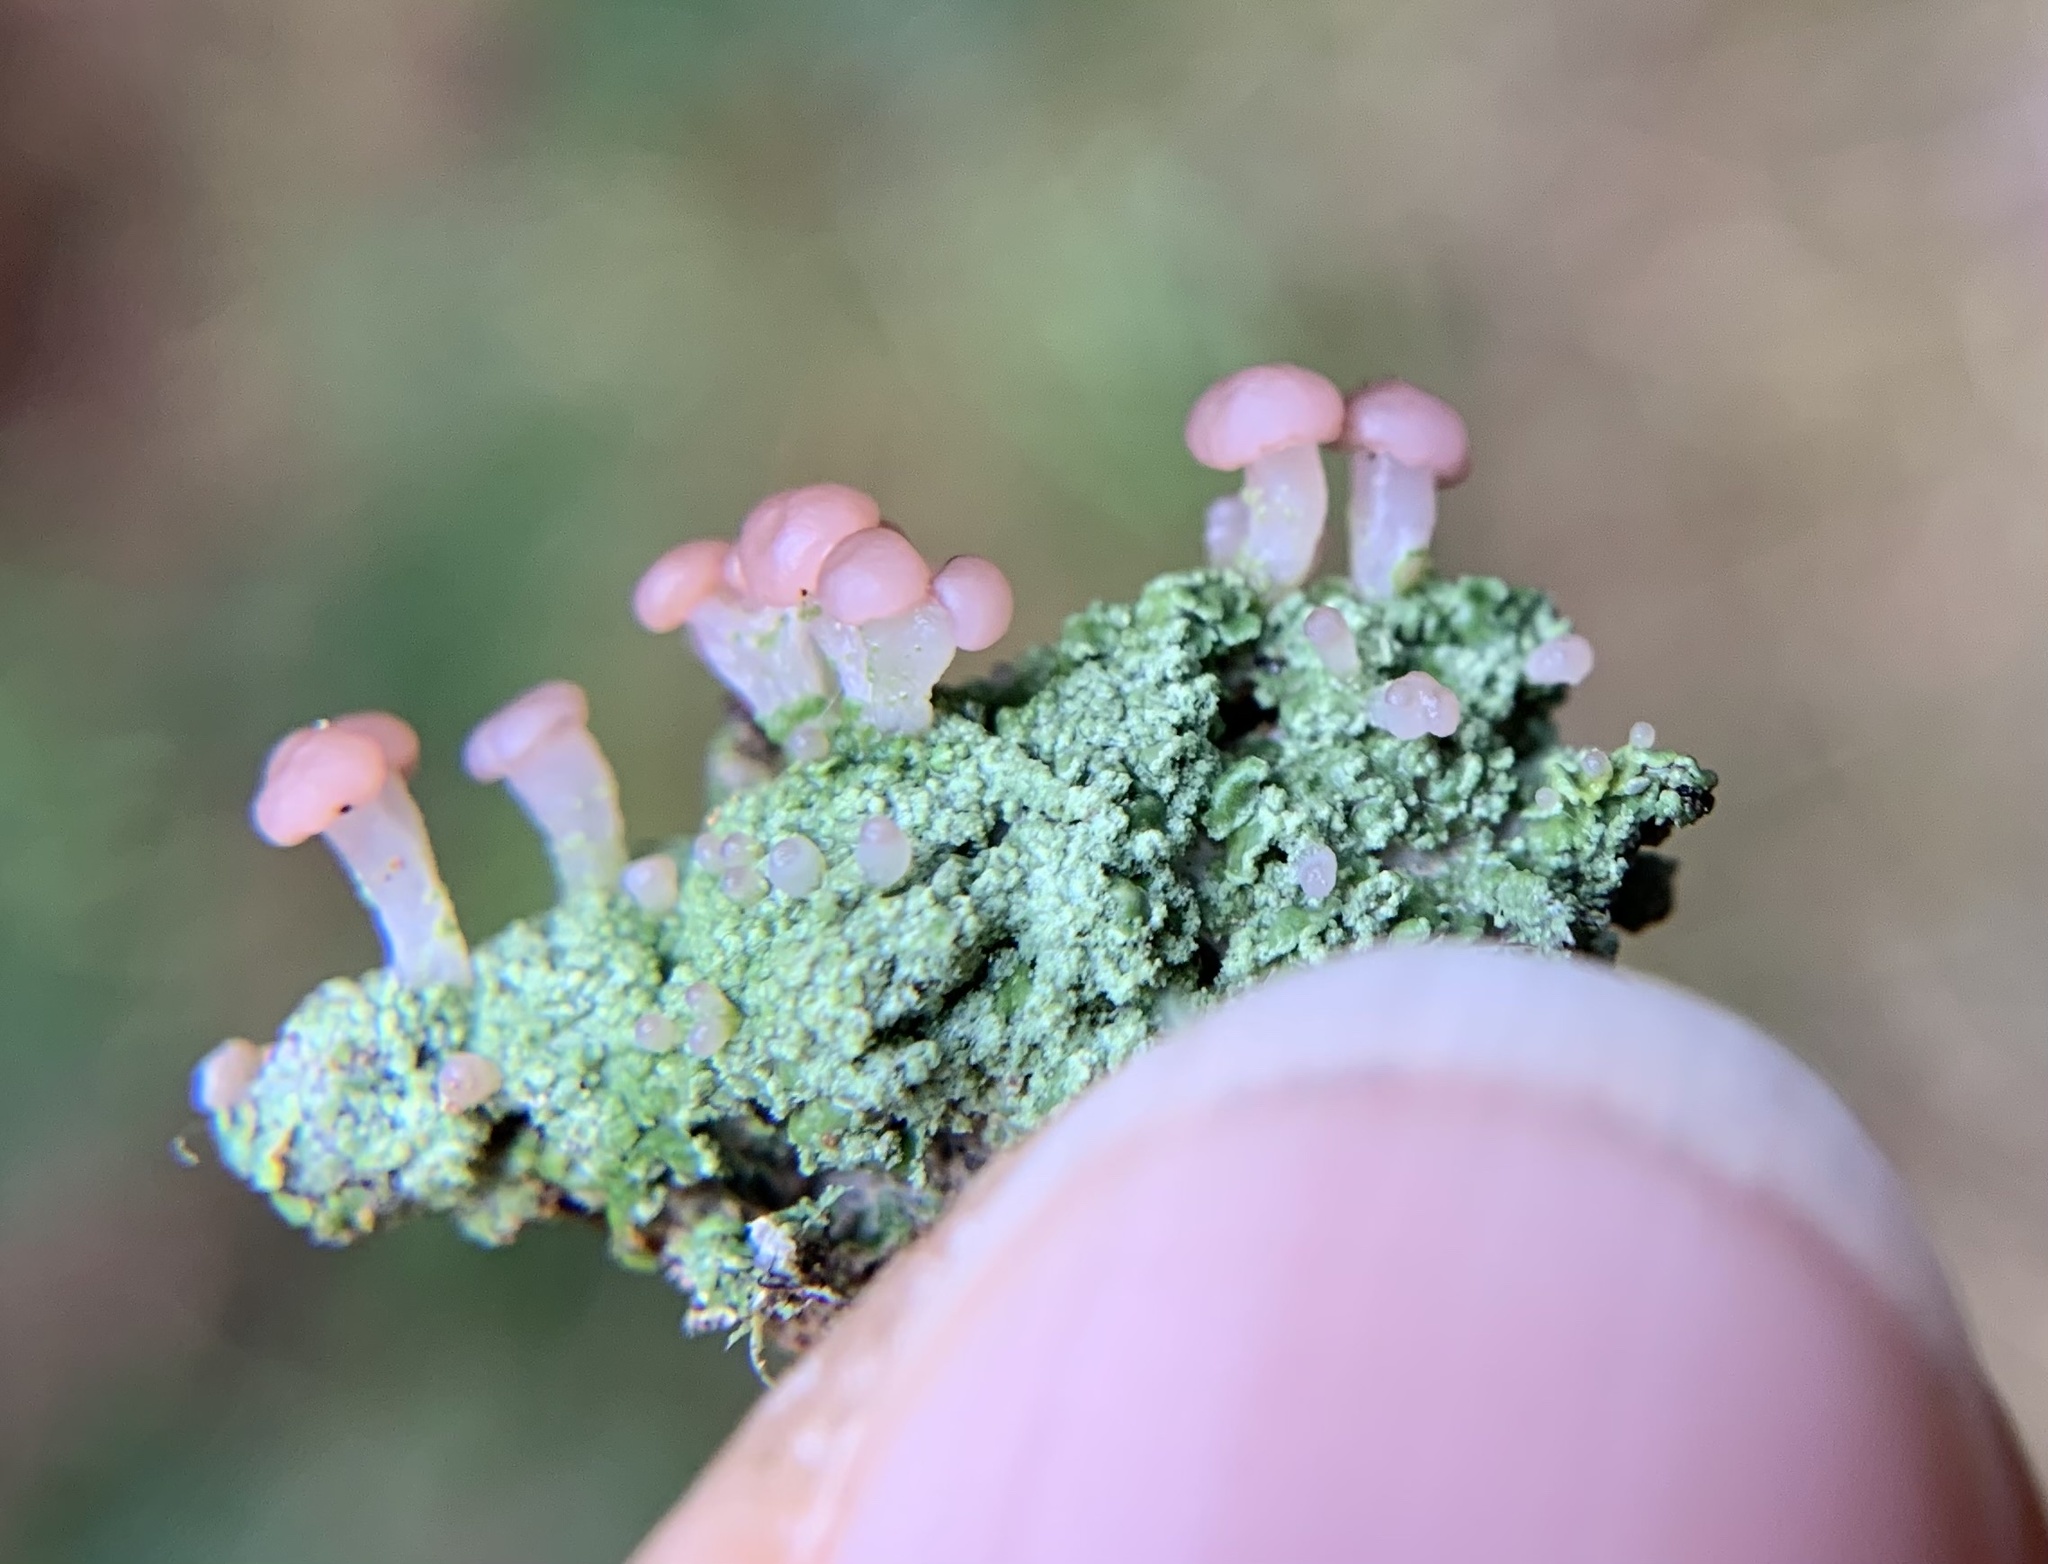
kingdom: Fungi
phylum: Ascomycota
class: Lecanoromycetes
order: Baeomycetales
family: Baeomycetaceae
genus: Baeomyces
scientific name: Baeomyces rufus
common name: Brown beret lichen
